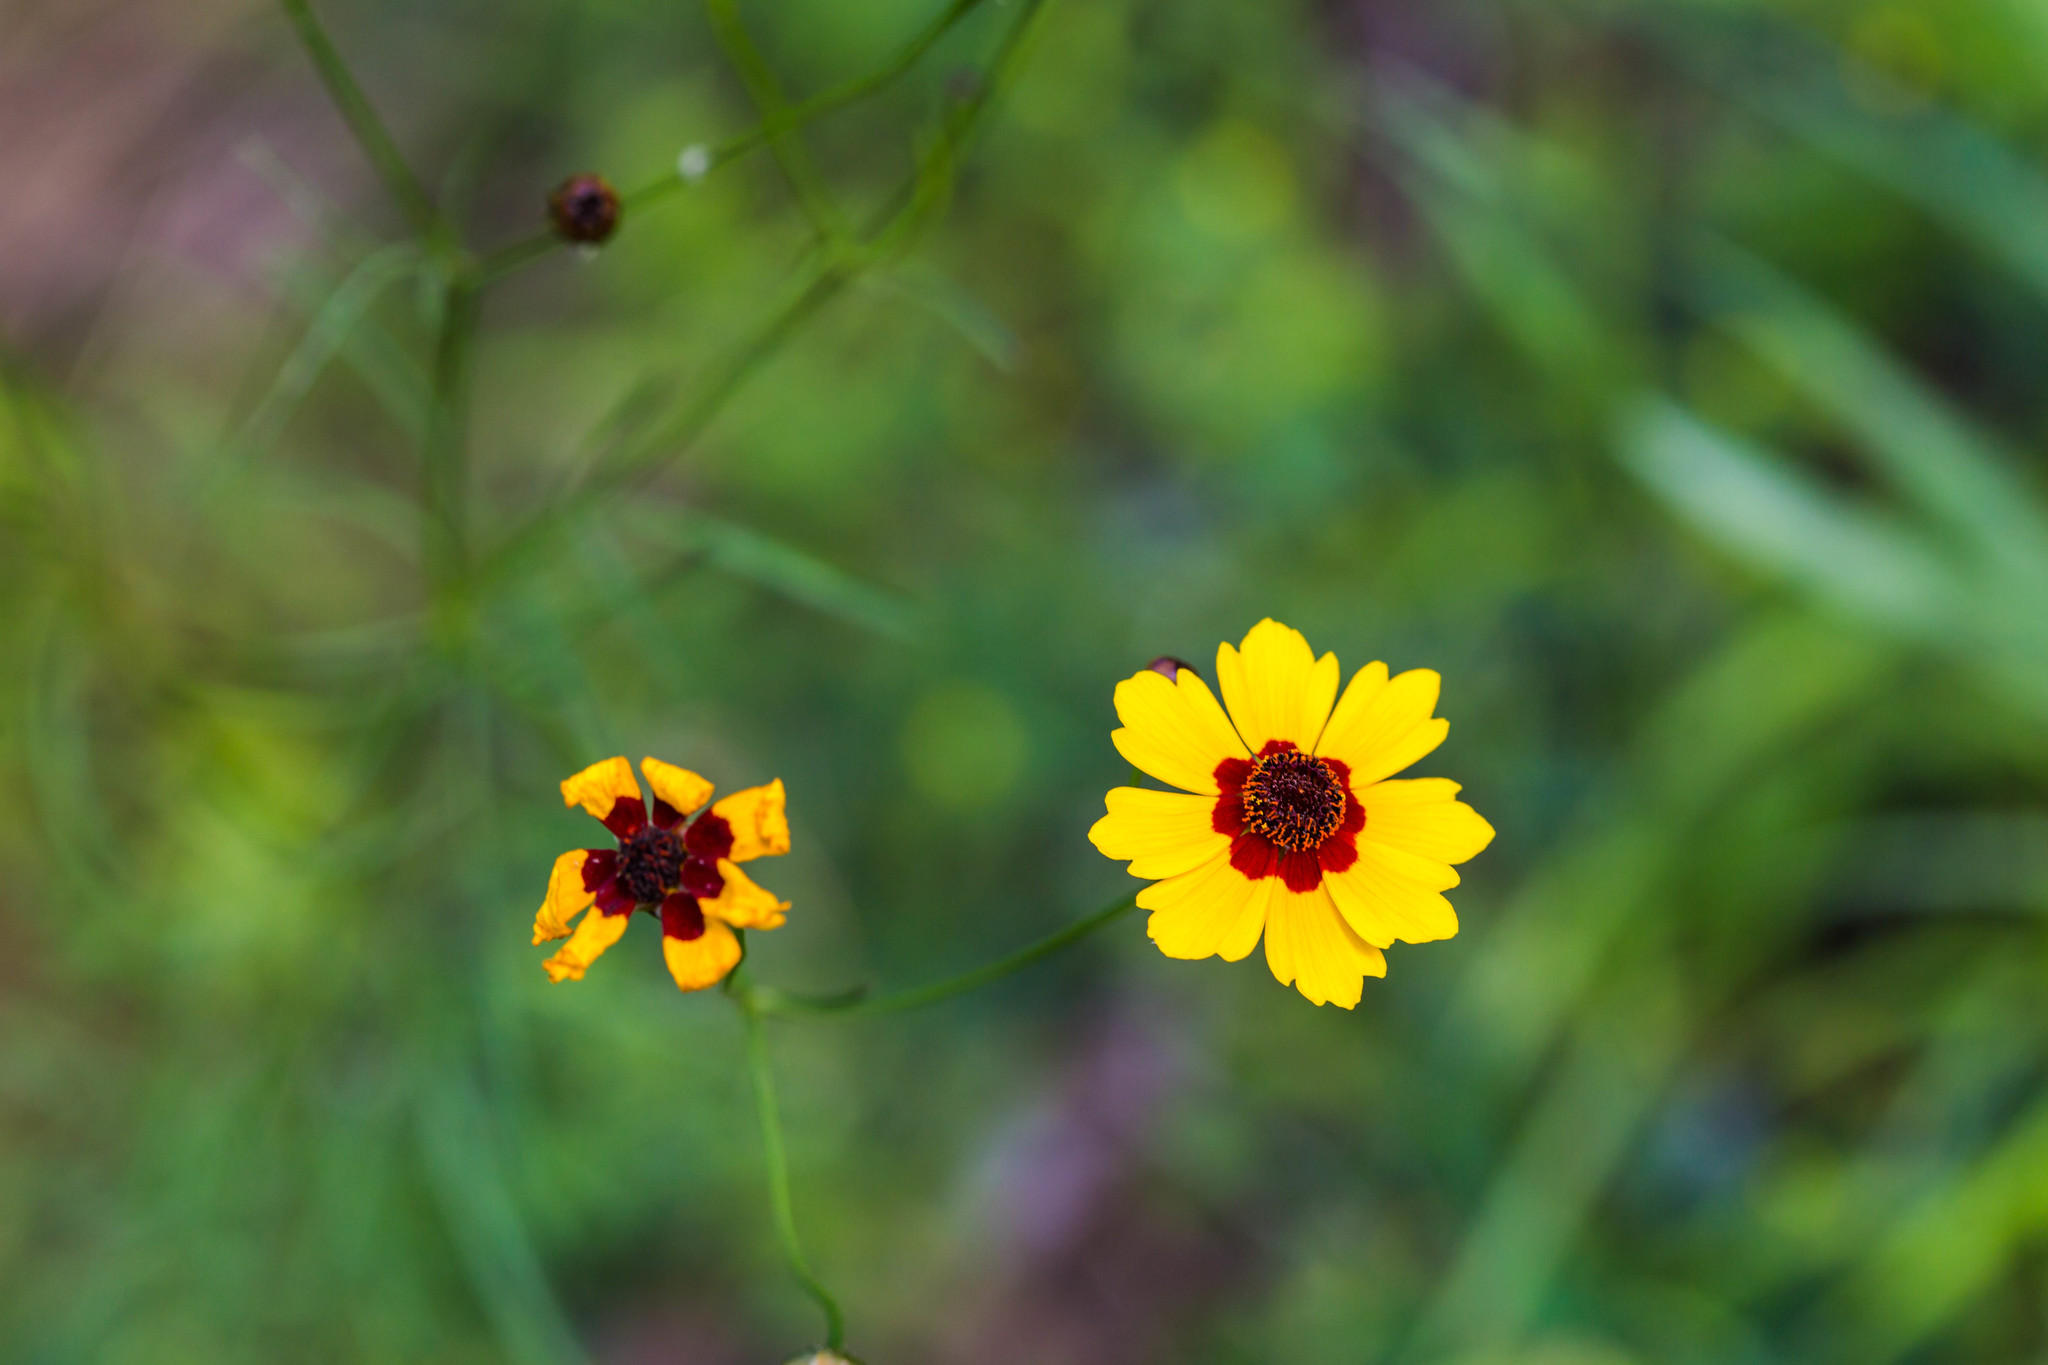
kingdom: Plantae
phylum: Tracheophyta
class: Magnoliopsida
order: Asterales
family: Asteraceae
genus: Coreopsis
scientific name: Coreopsis tinctoria
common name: Garden tickseed
